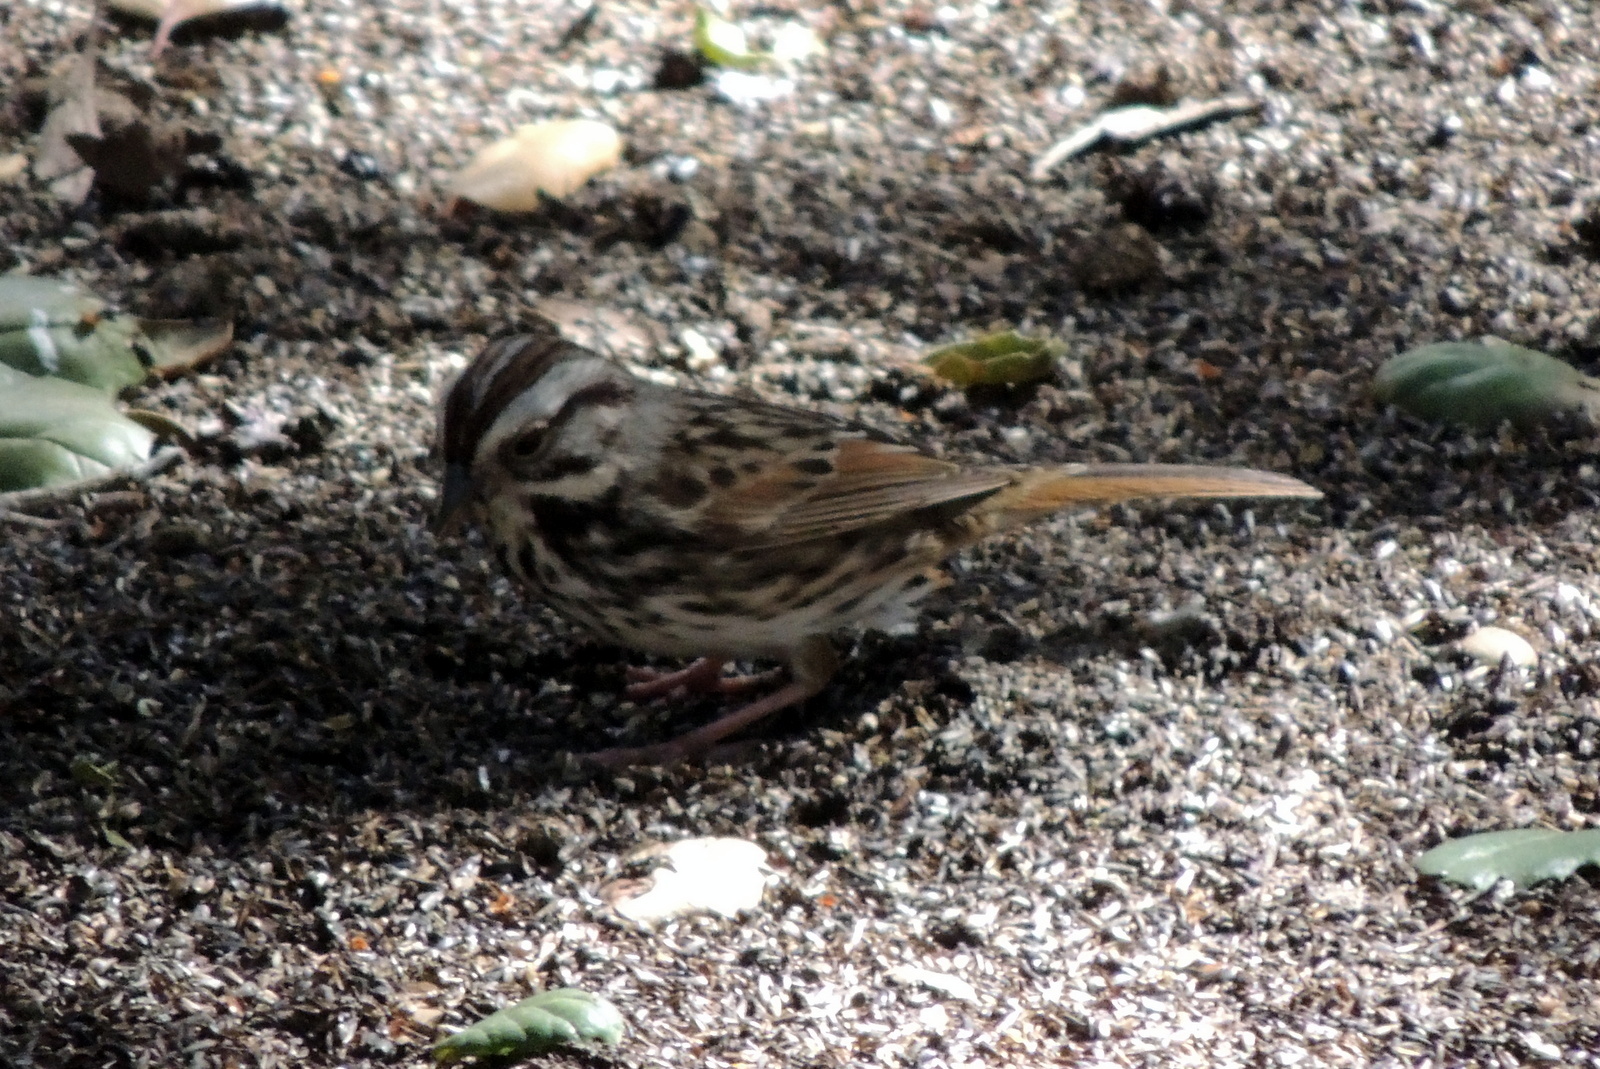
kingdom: Animalia
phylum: Chordata
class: Aves
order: Passeriformes
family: Passerellidae
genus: Melospiza
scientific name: Melospiza melodia
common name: Song sparrow
